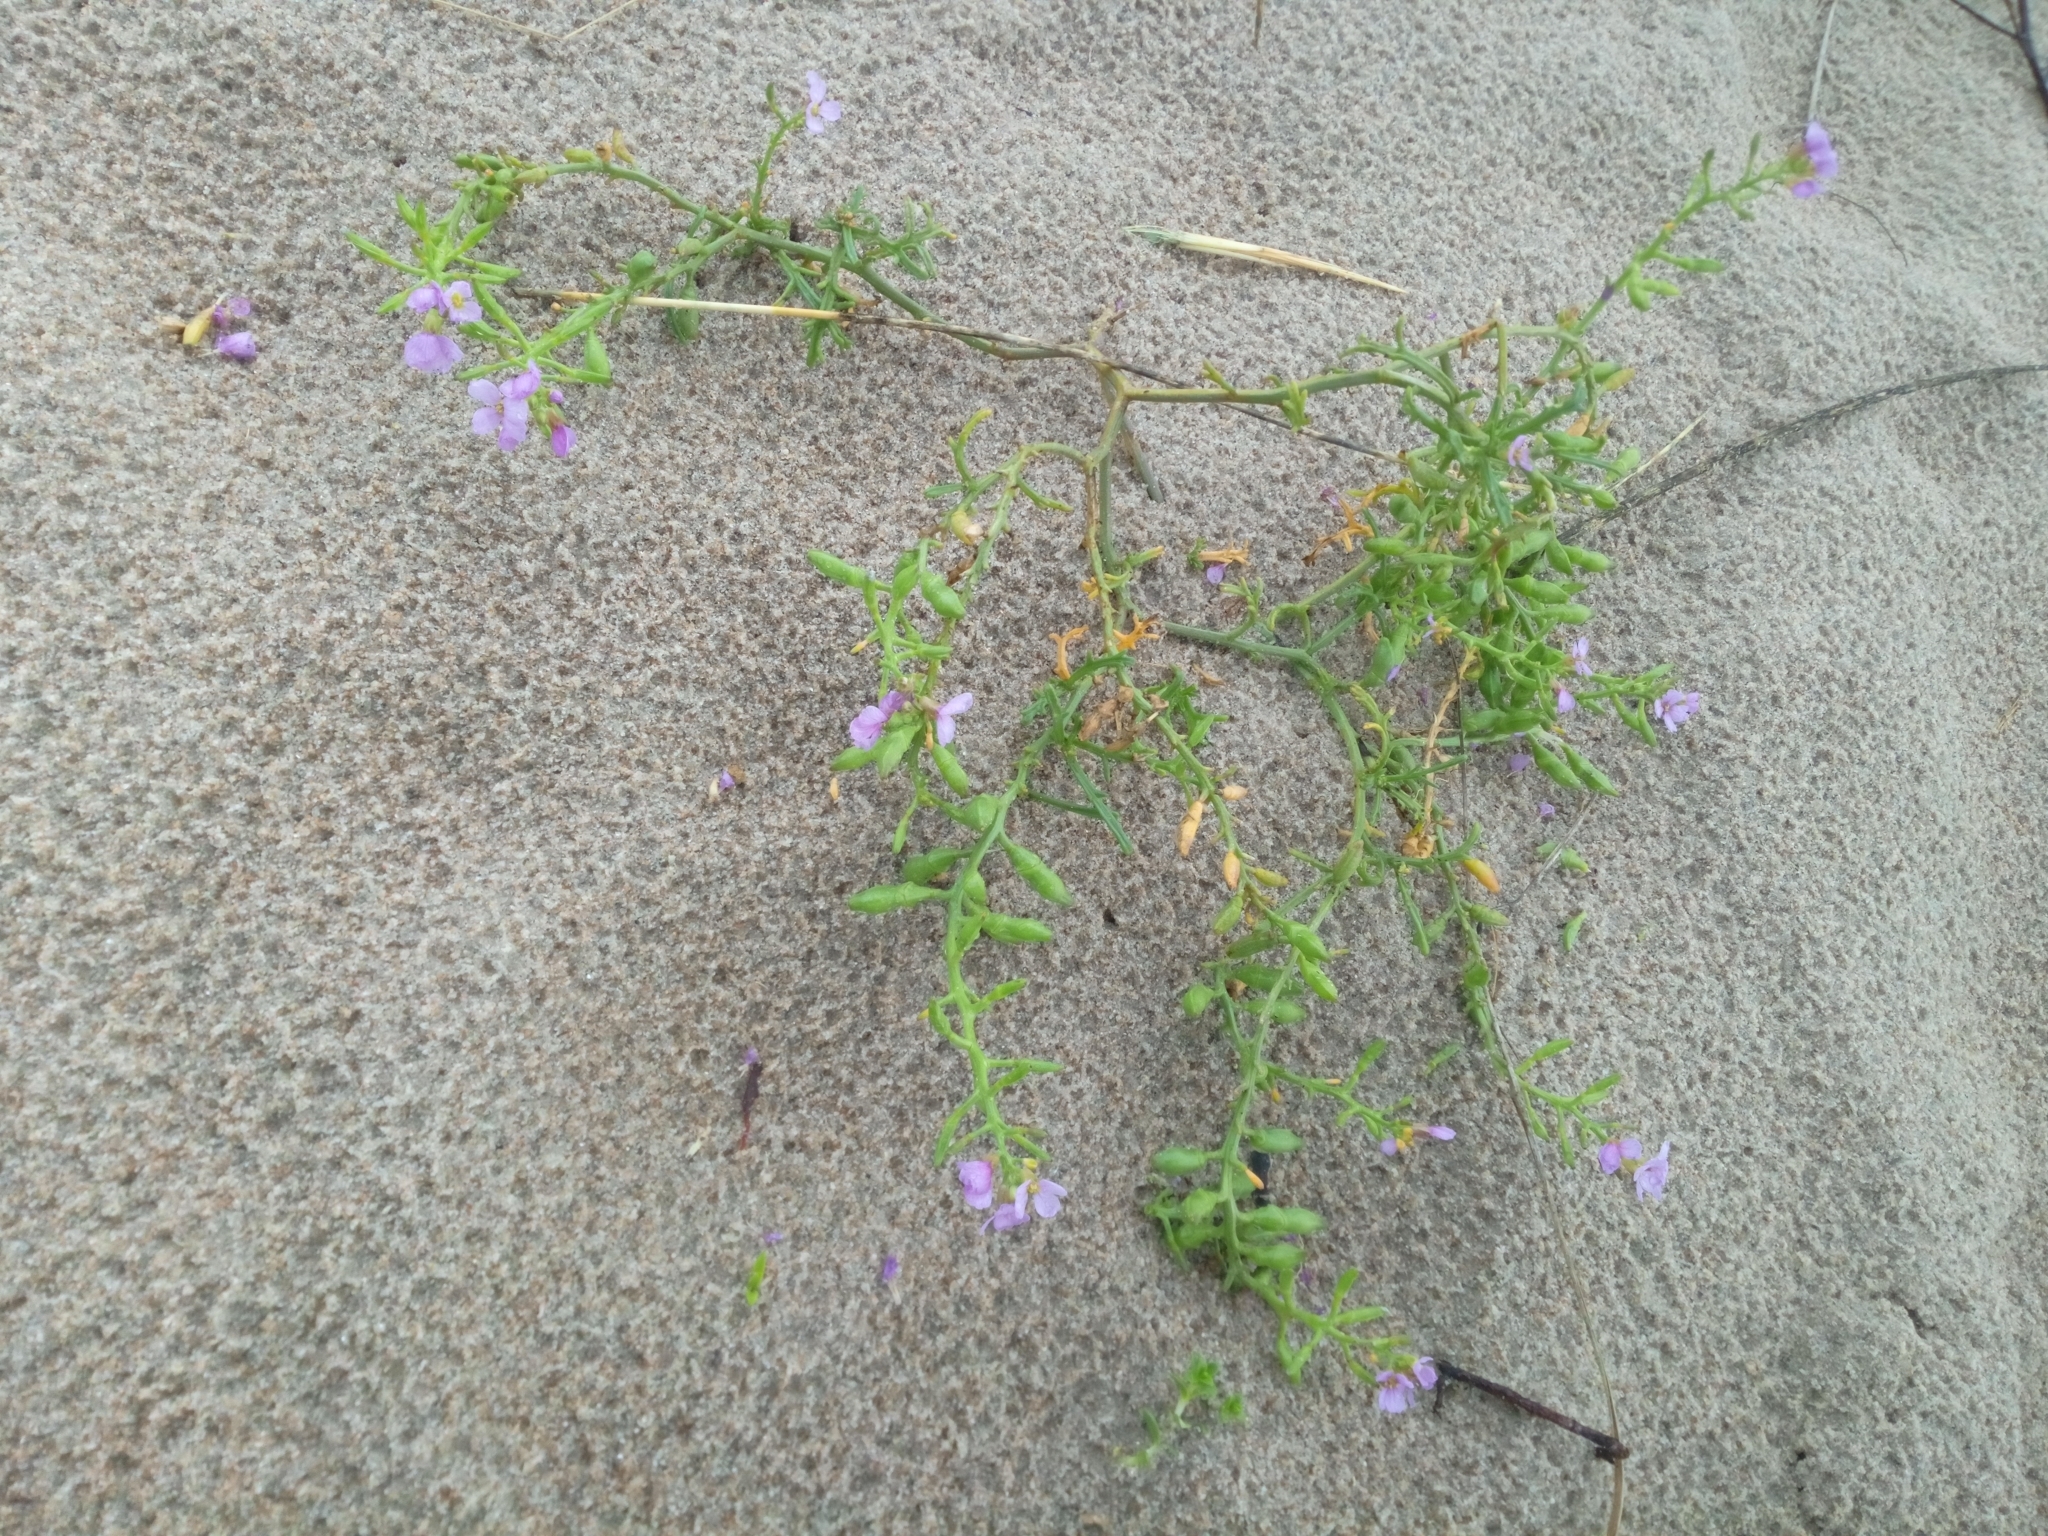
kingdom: Plantae
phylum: Tracheophyta
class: Magnoliopsida
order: Brassicales
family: Brassicaceae
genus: Cakile
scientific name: Cakile maritima
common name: Sea rocket
